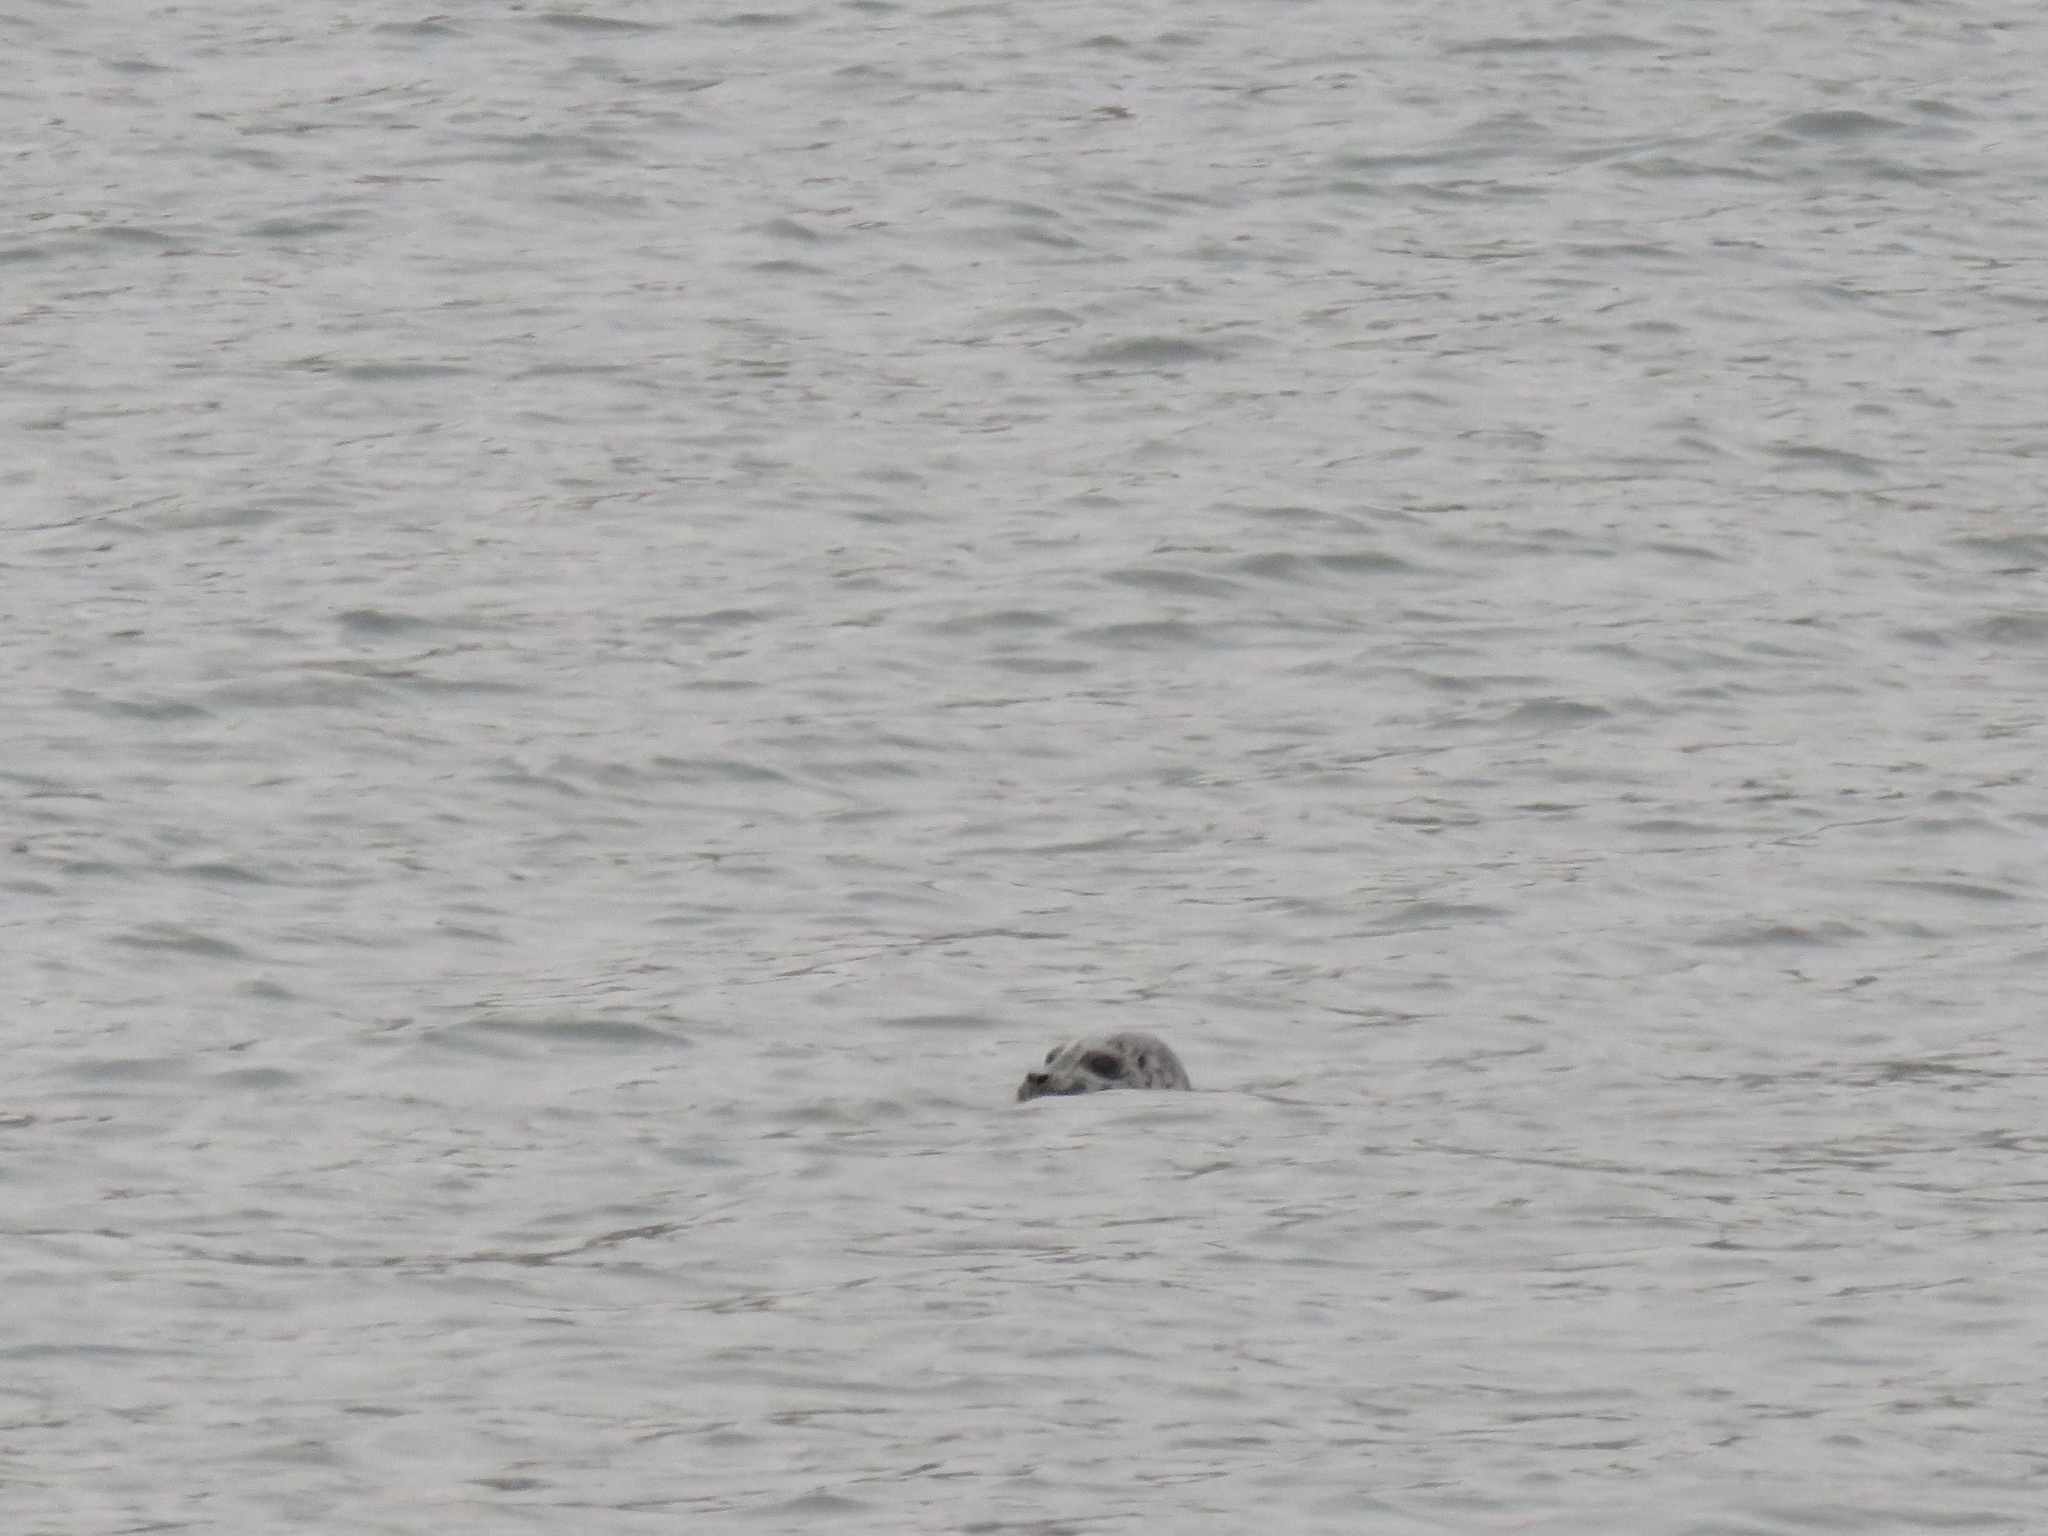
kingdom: Animalia
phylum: Chordata
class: Mammalia
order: Carnivora
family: Phocidae
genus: Phoca
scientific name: Phoca vitulina
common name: Harbor seal
